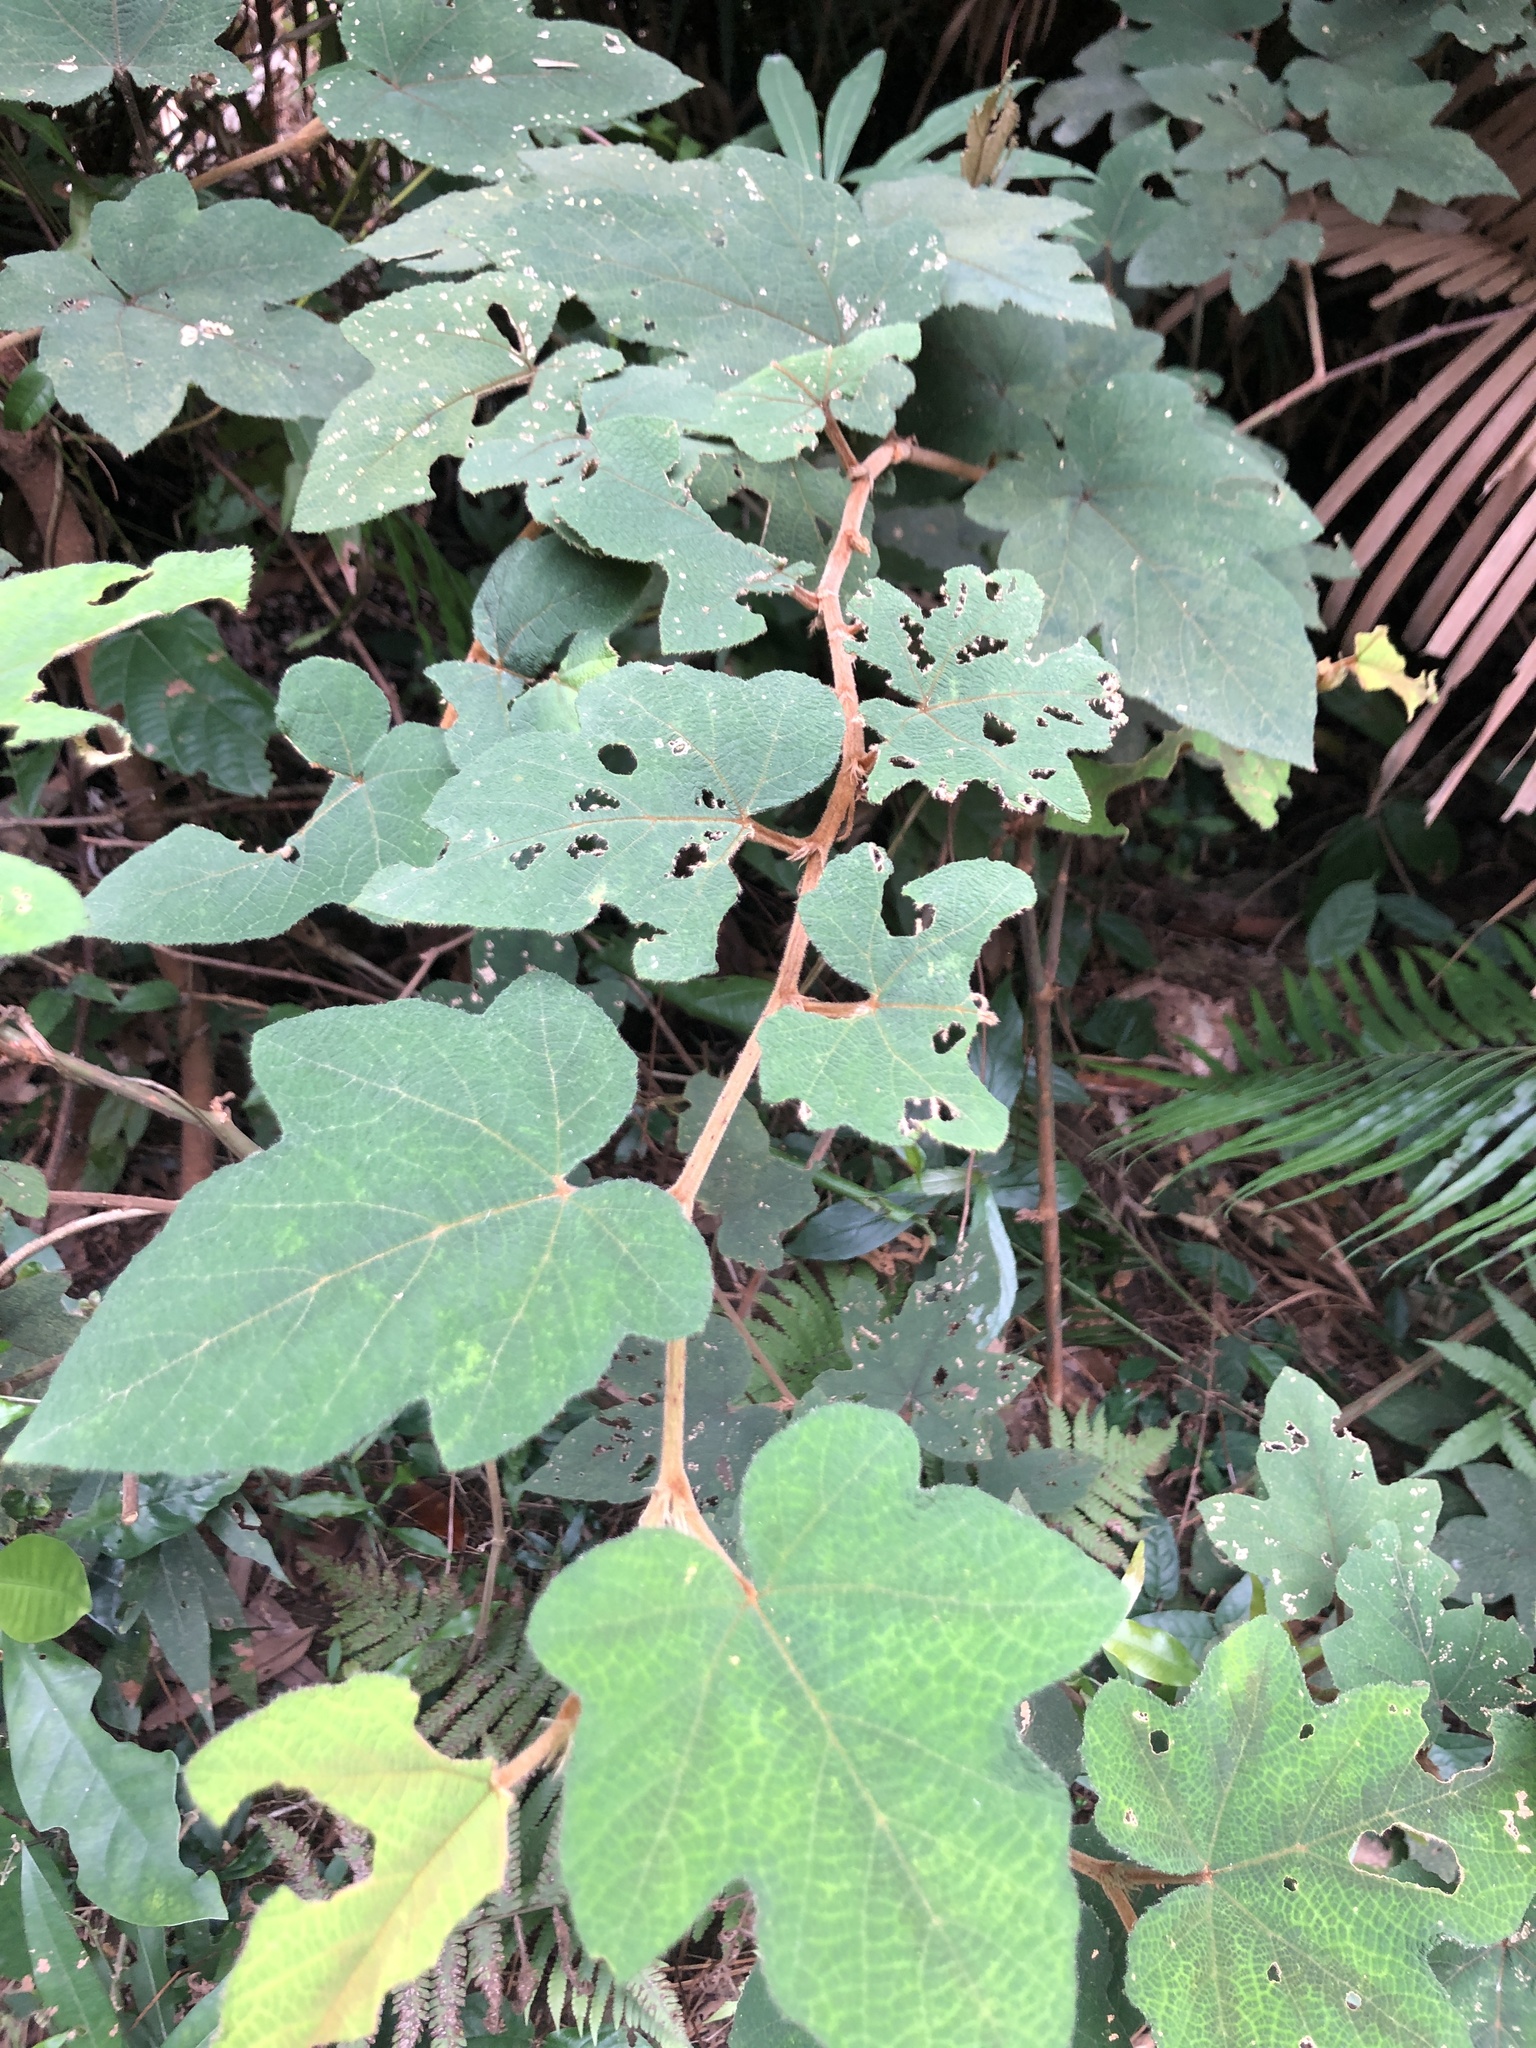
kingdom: Plantae
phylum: Tracheophyta
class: Magnoliopsida
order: Rosales
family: Rosaceae
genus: Rubus
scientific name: Rubus reflexus
